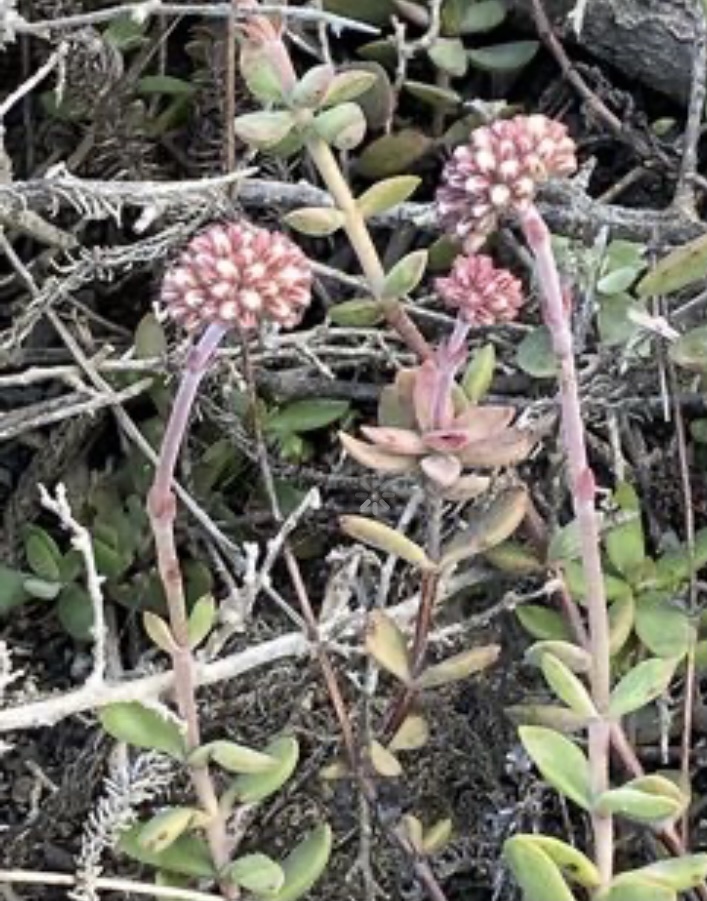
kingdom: Plantae
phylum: Tracheophyta
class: Magnoliopsida
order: Saxifragales
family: Crassulaceae
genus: Crassula
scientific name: Crassula pubescens
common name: Jersey pigmyweed
